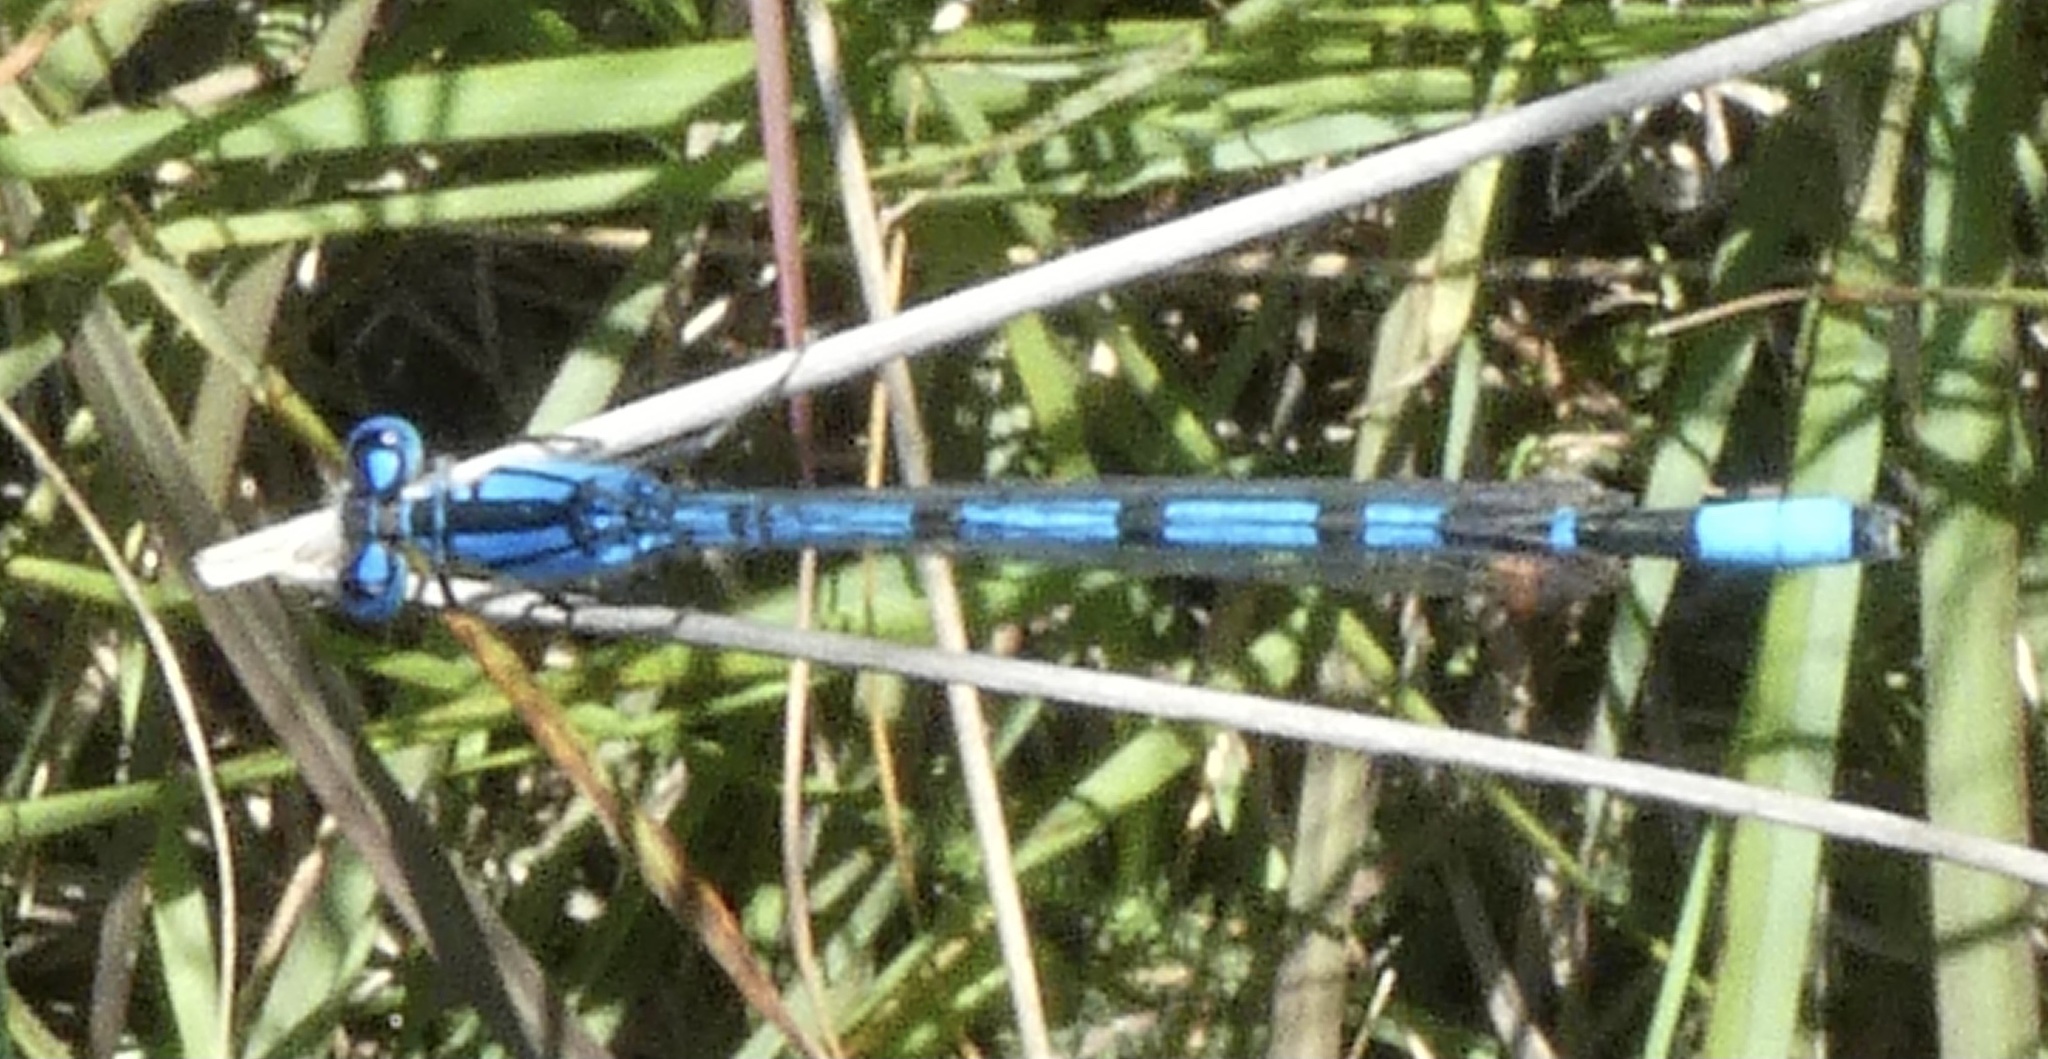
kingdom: Animalia
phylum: Arthropoda
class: Insecta
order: Odonata
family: Coenagrionidae
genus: Enallagma
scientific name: Enallagma cyathigerum
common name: Common blue damselfly
